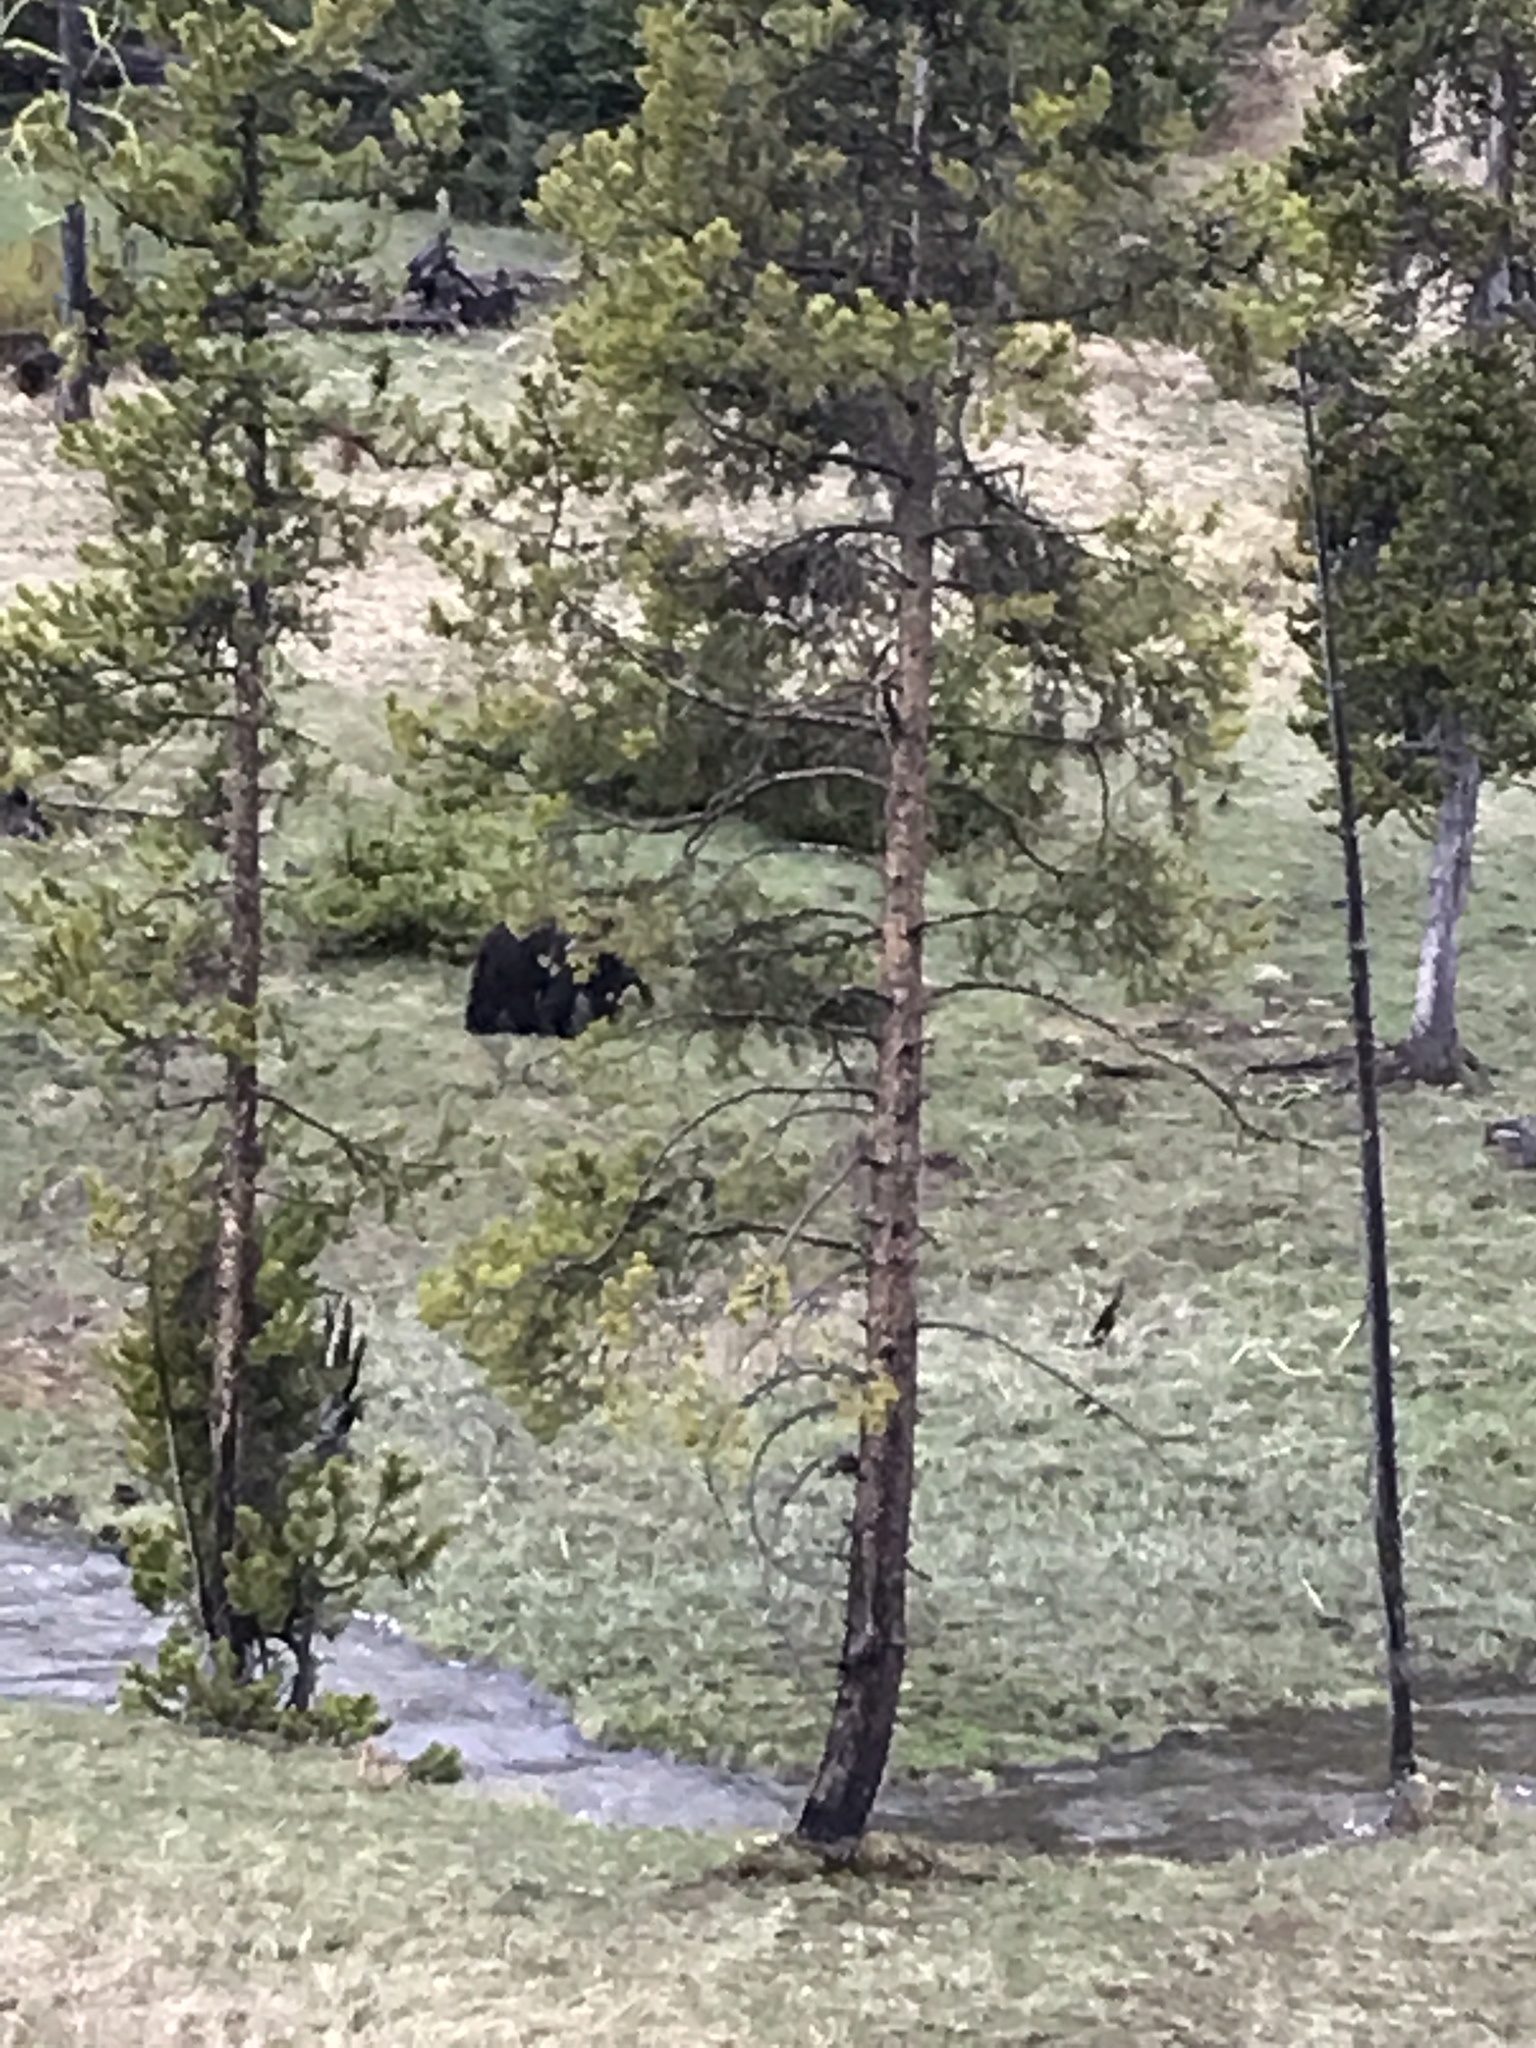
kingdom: Animalia
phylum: Chordata
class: Mammalia
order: Carnivora
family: Ursidae
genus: Ursus
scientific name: Ursus americanus
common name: American black bear
